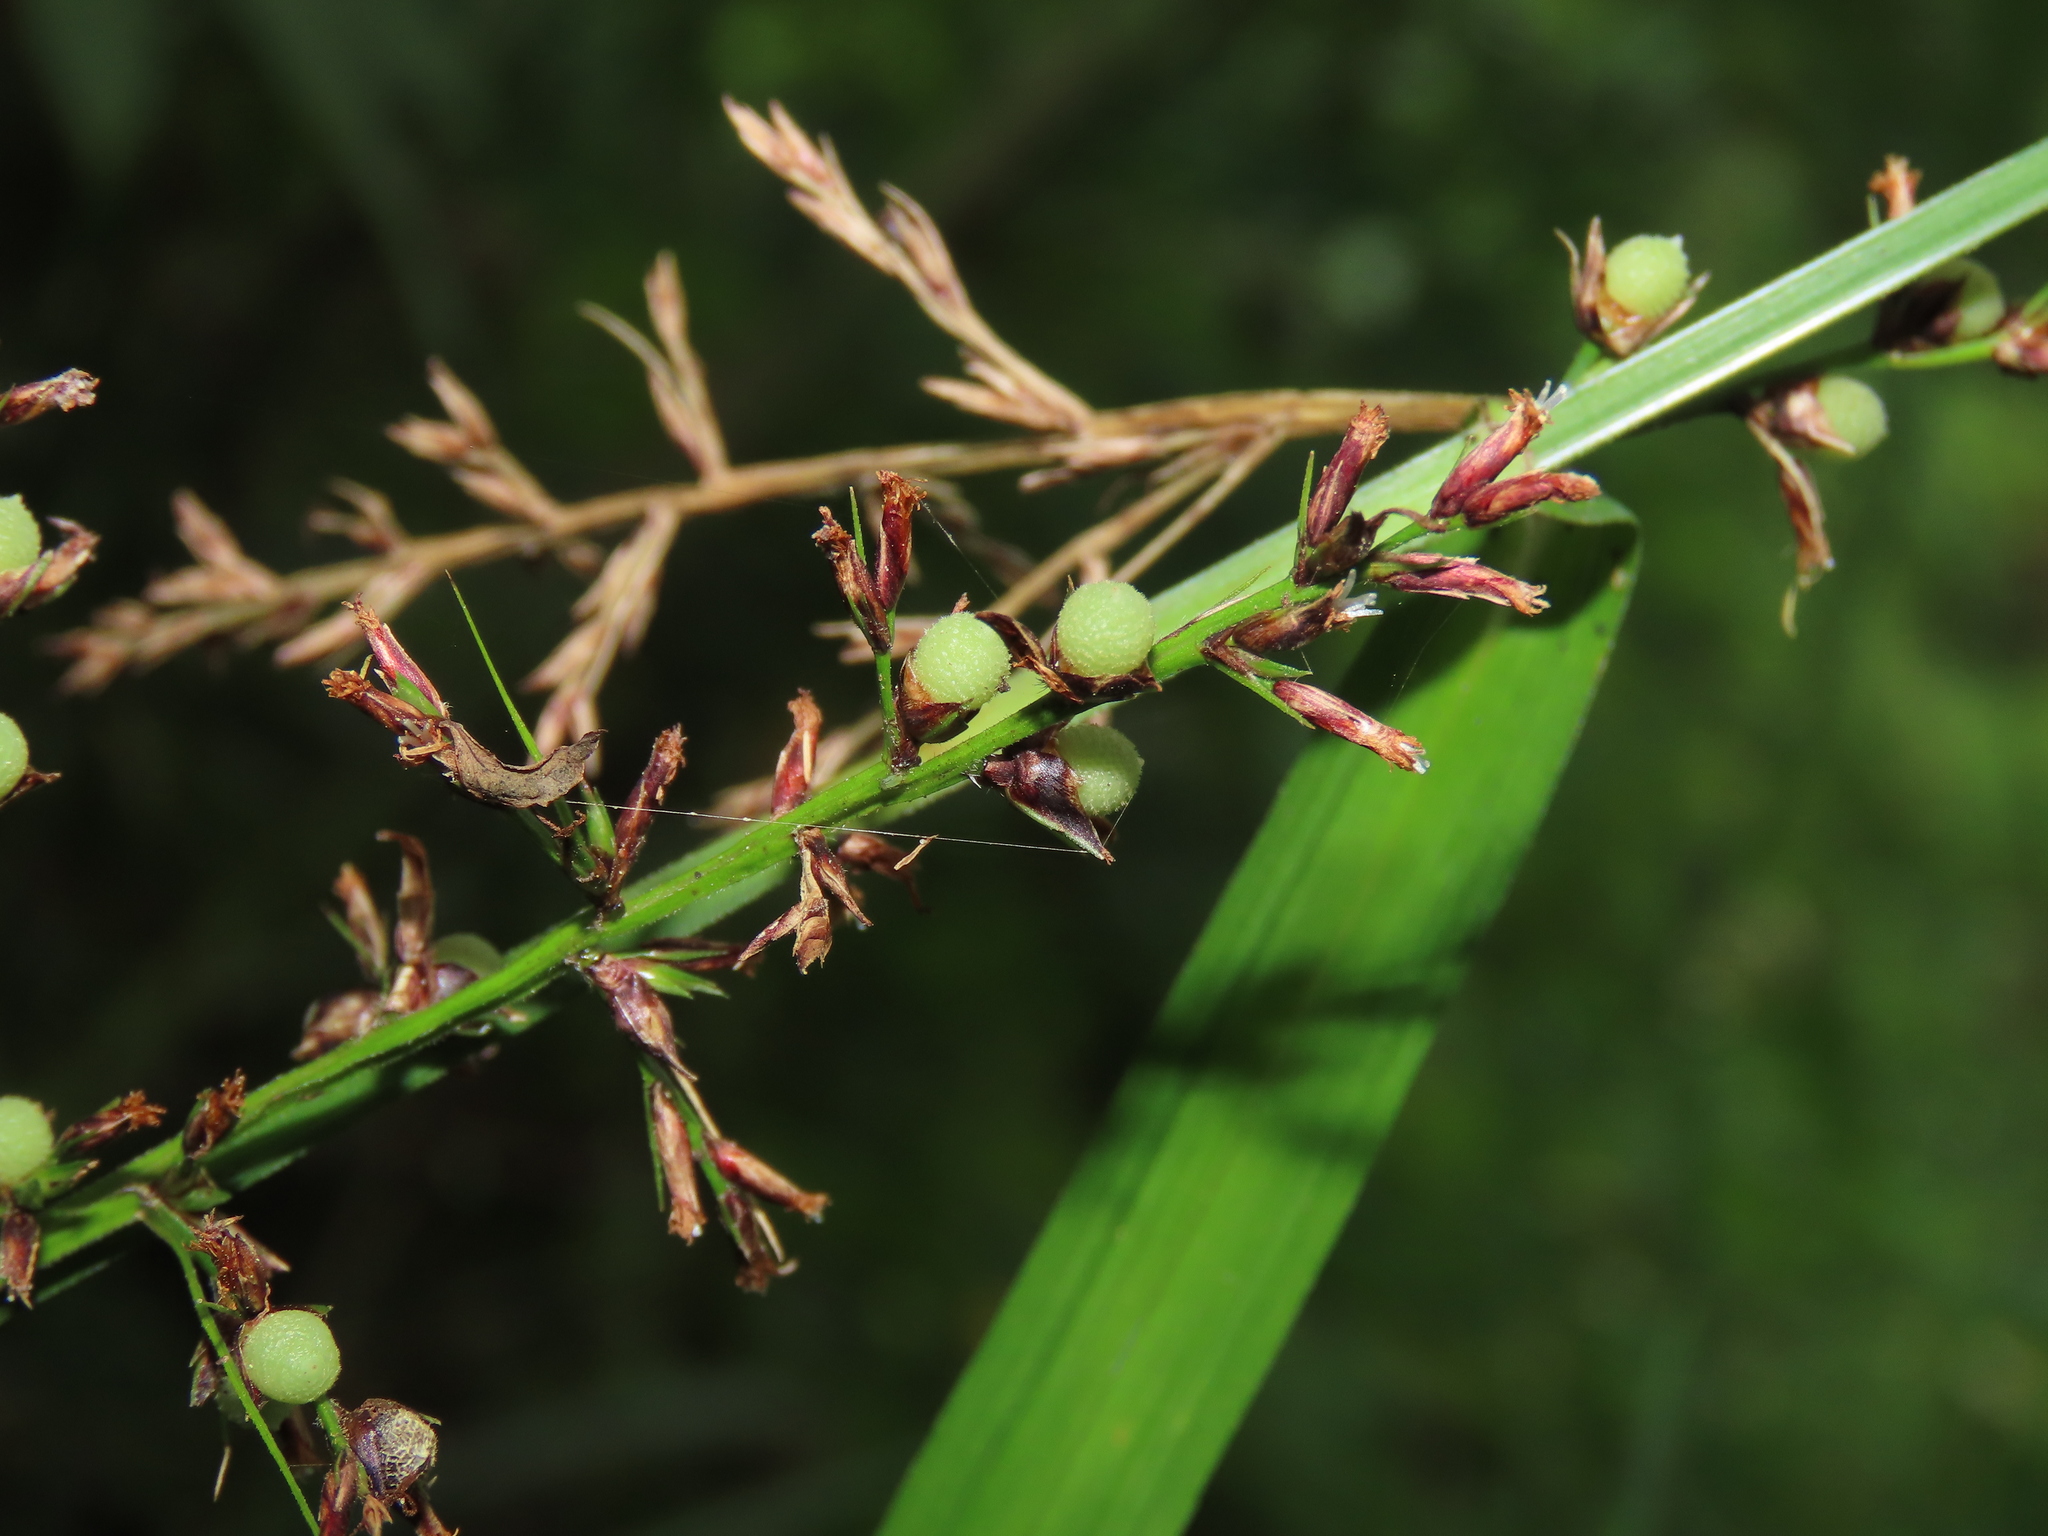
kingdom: Plantae
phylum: Tracheophyta
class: Liliopsida
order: Poales
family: Cyperaceae
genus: Scleria
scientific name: Scleria terrestris
